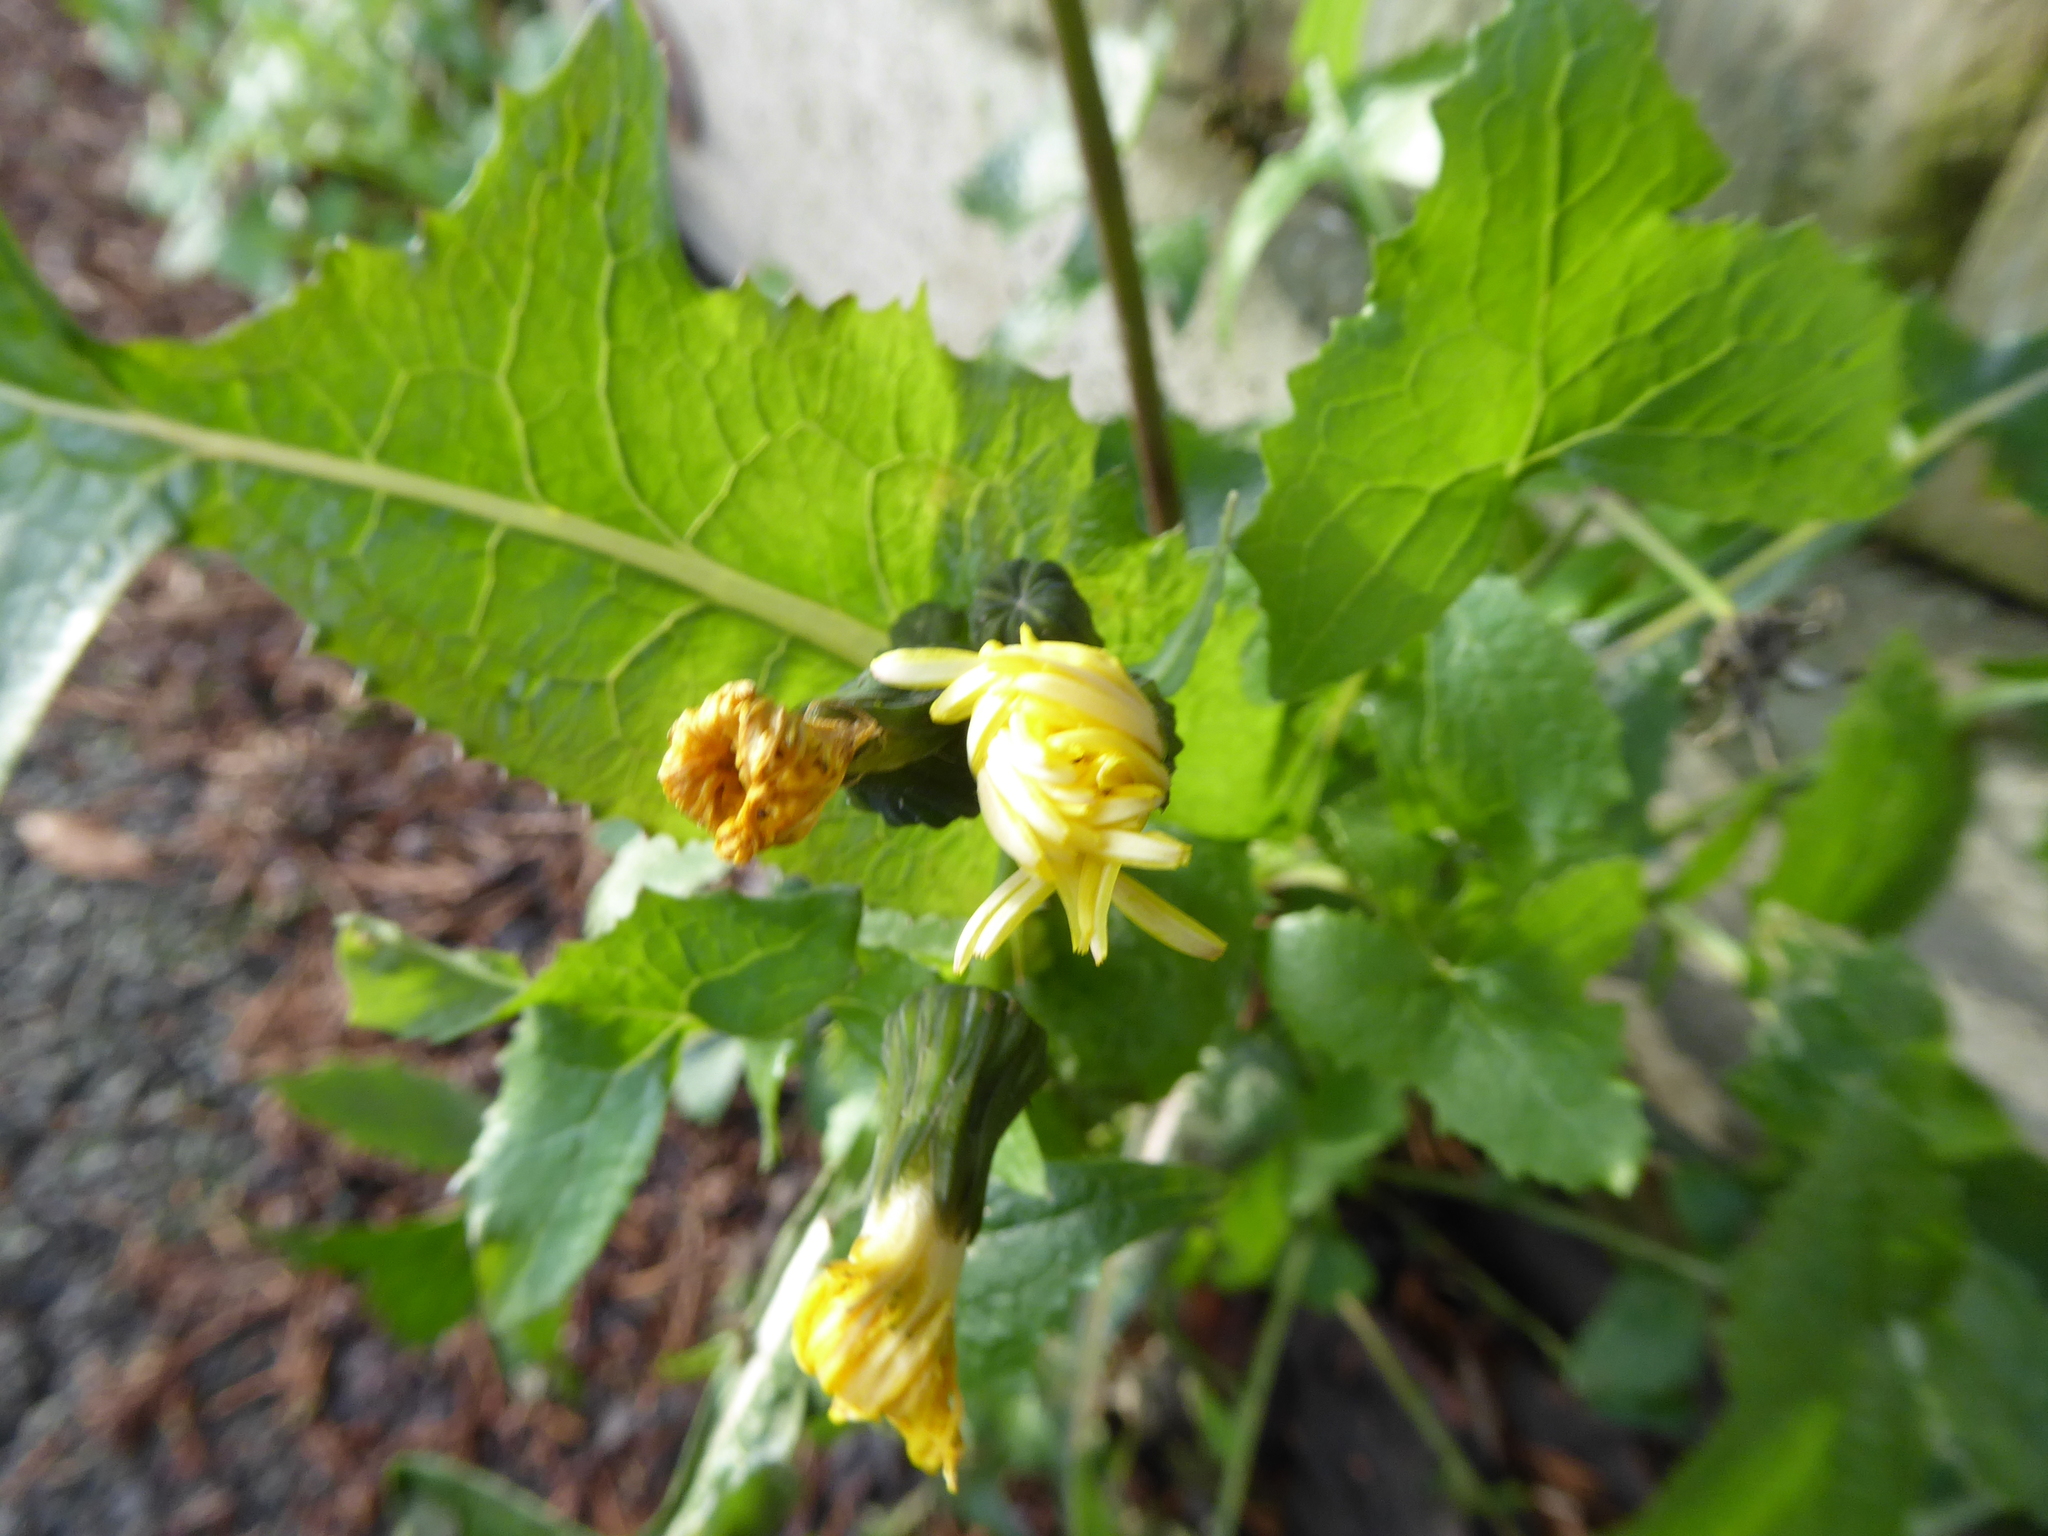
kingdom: Plantae
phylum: Tracheophyta
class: Magnoliopsida
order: Asterales
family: Asteraceae
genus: Sonchus
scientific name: Sonchus oleraceus
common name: Common sowthistle
